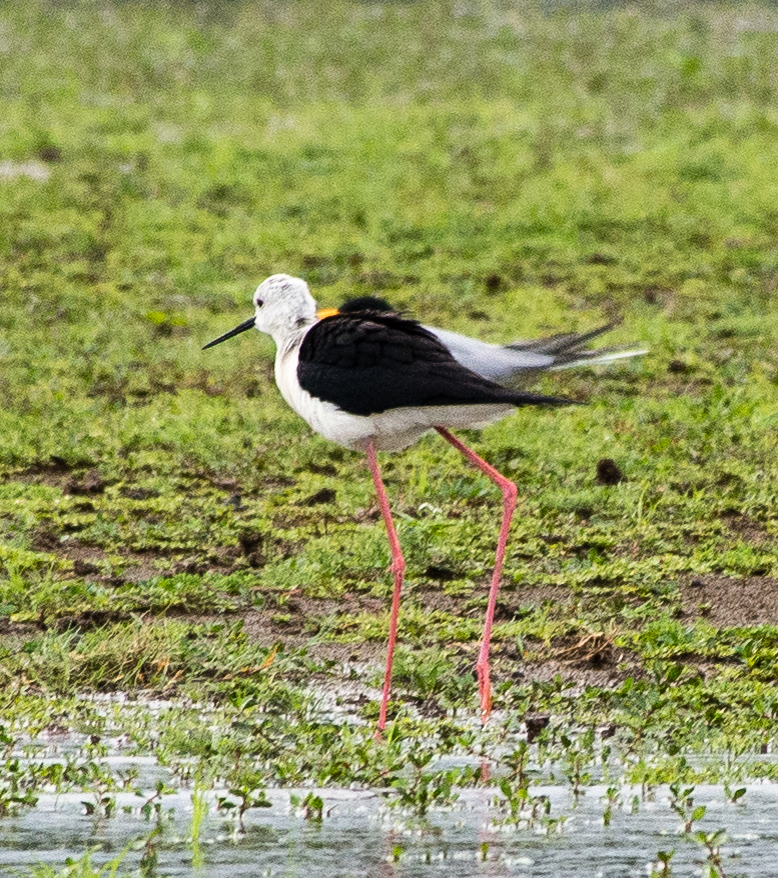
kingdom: Animalia
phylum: Chordata
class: Aves
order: Charadriiformes
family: Recurvirostridae
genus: Himantopus
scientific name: Himantopus himantopus
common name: Black-winged stilt
